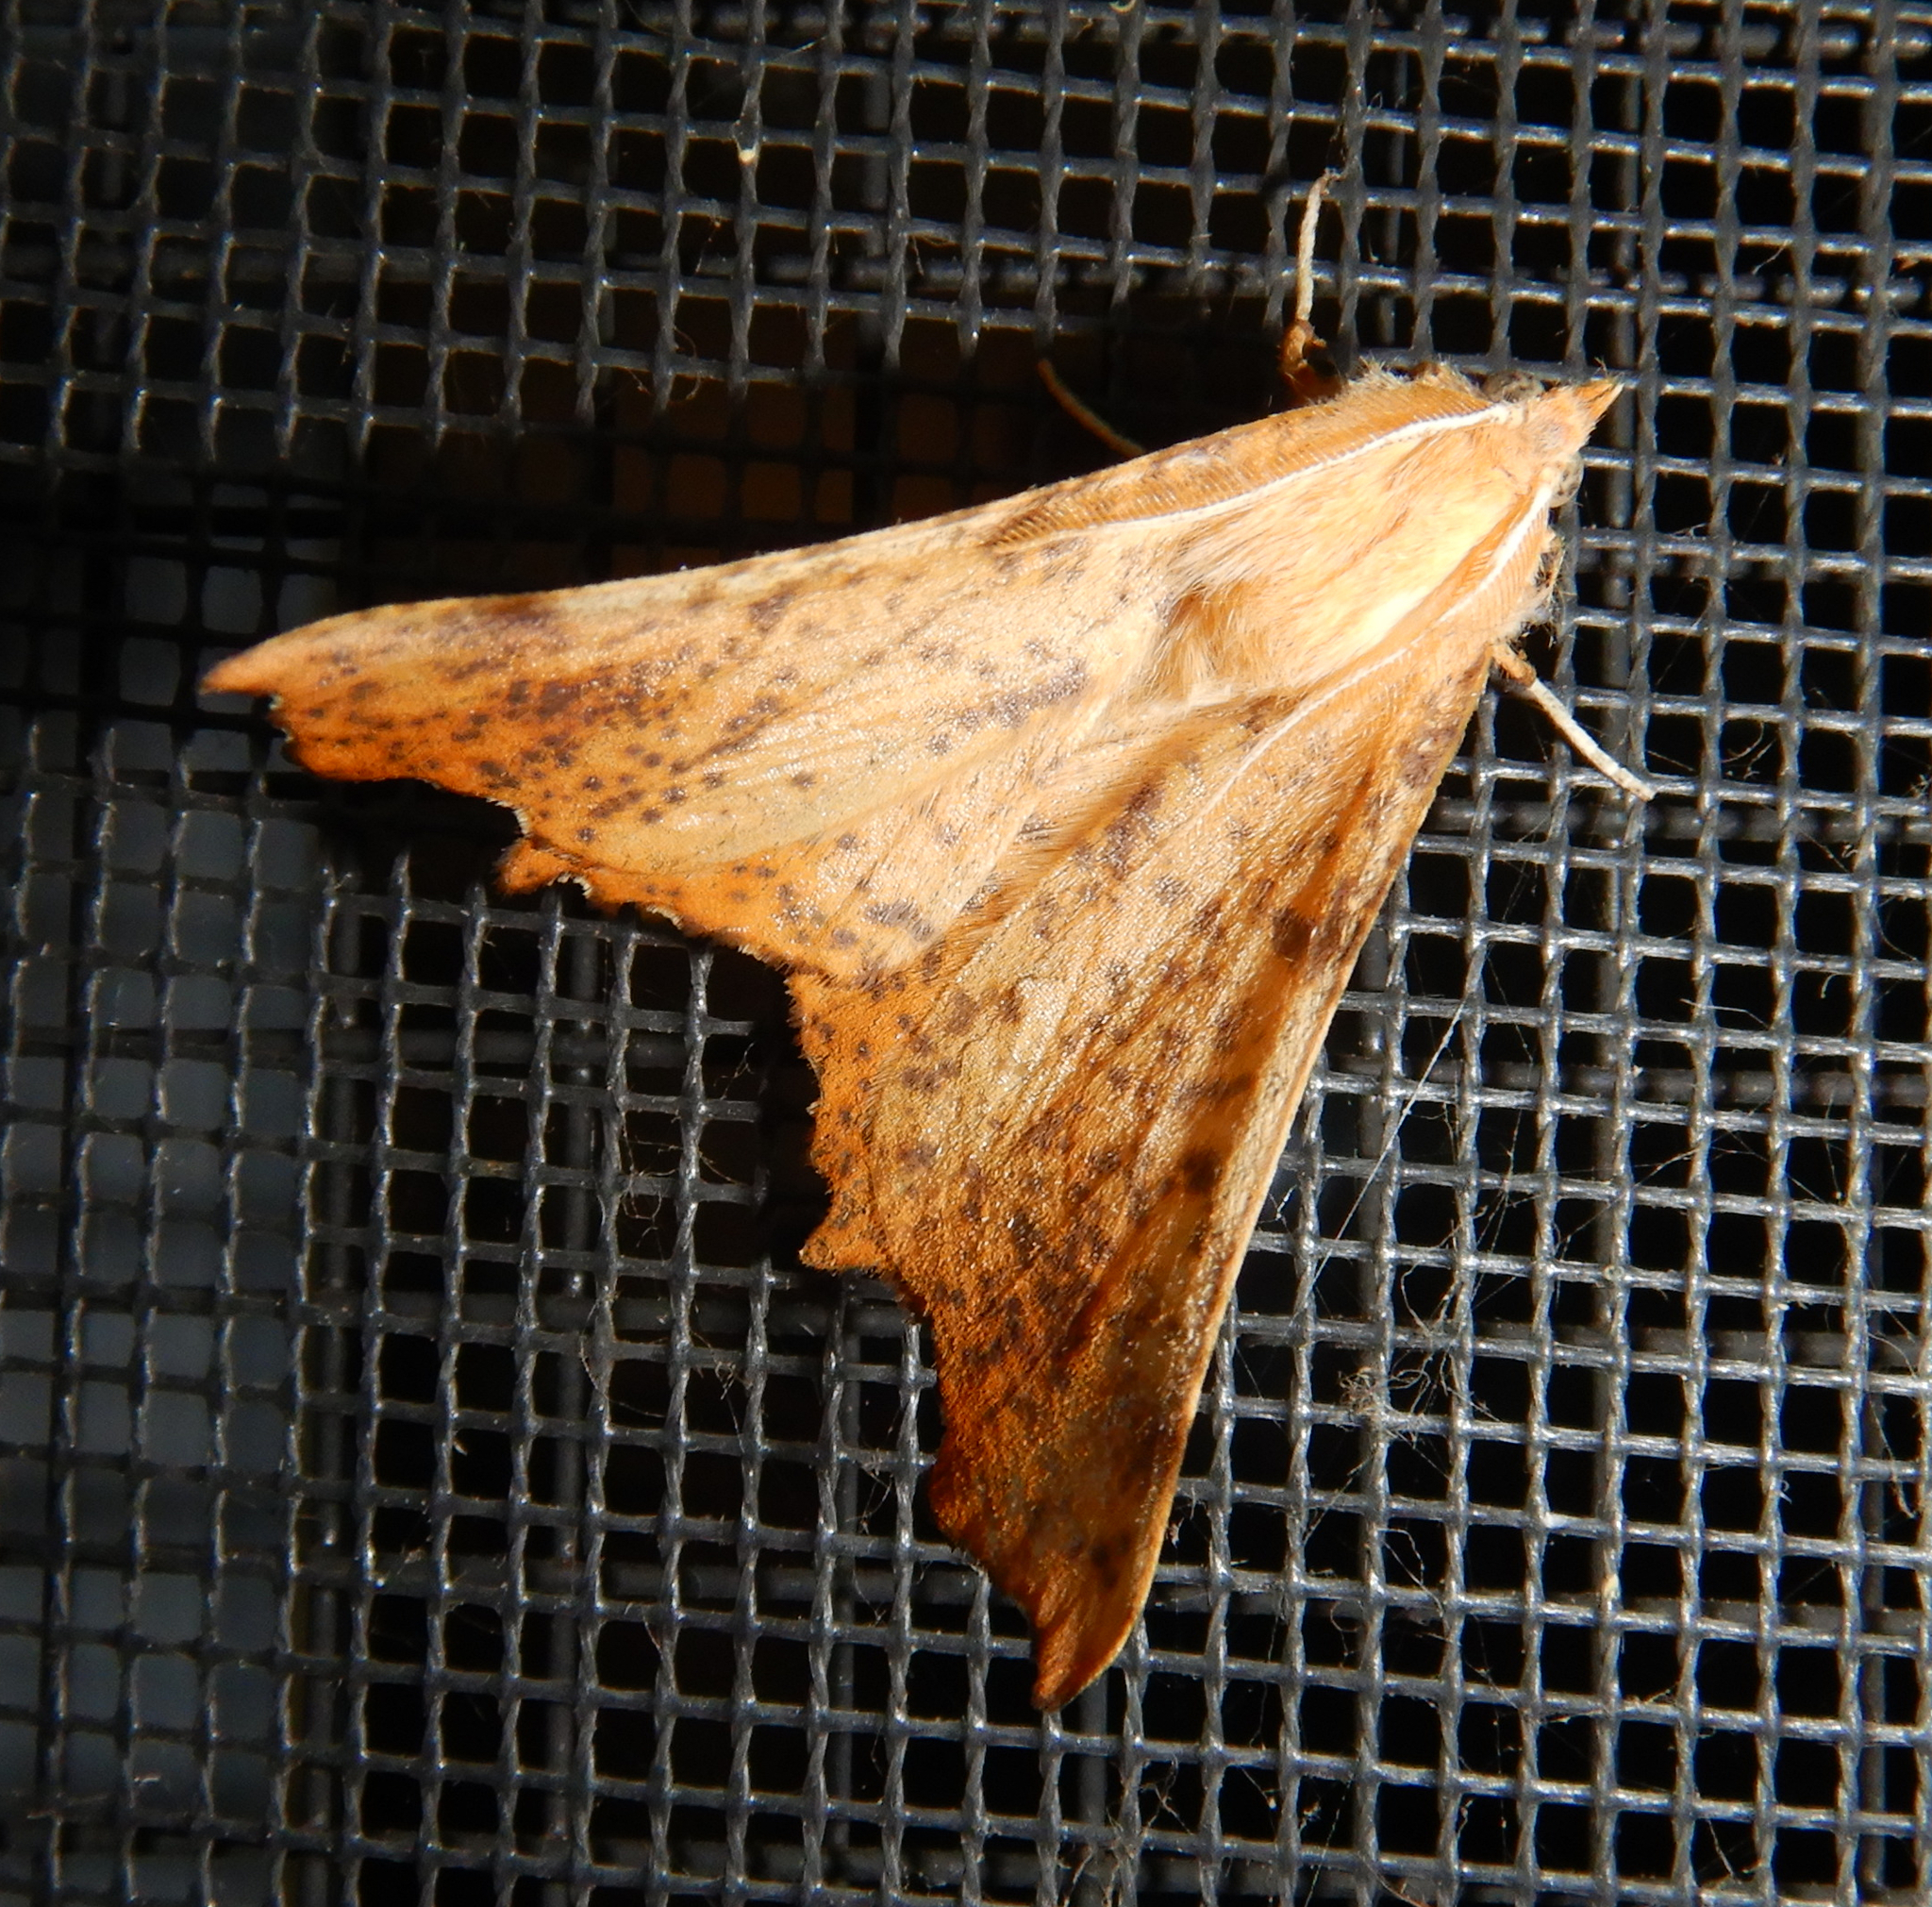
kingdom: Animalia
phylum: Arthropoda
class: Insecta
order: Lepidoptera
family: Geometridae
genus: Ennomos
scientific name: Ennomos magnaria
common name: Maple spanworm
